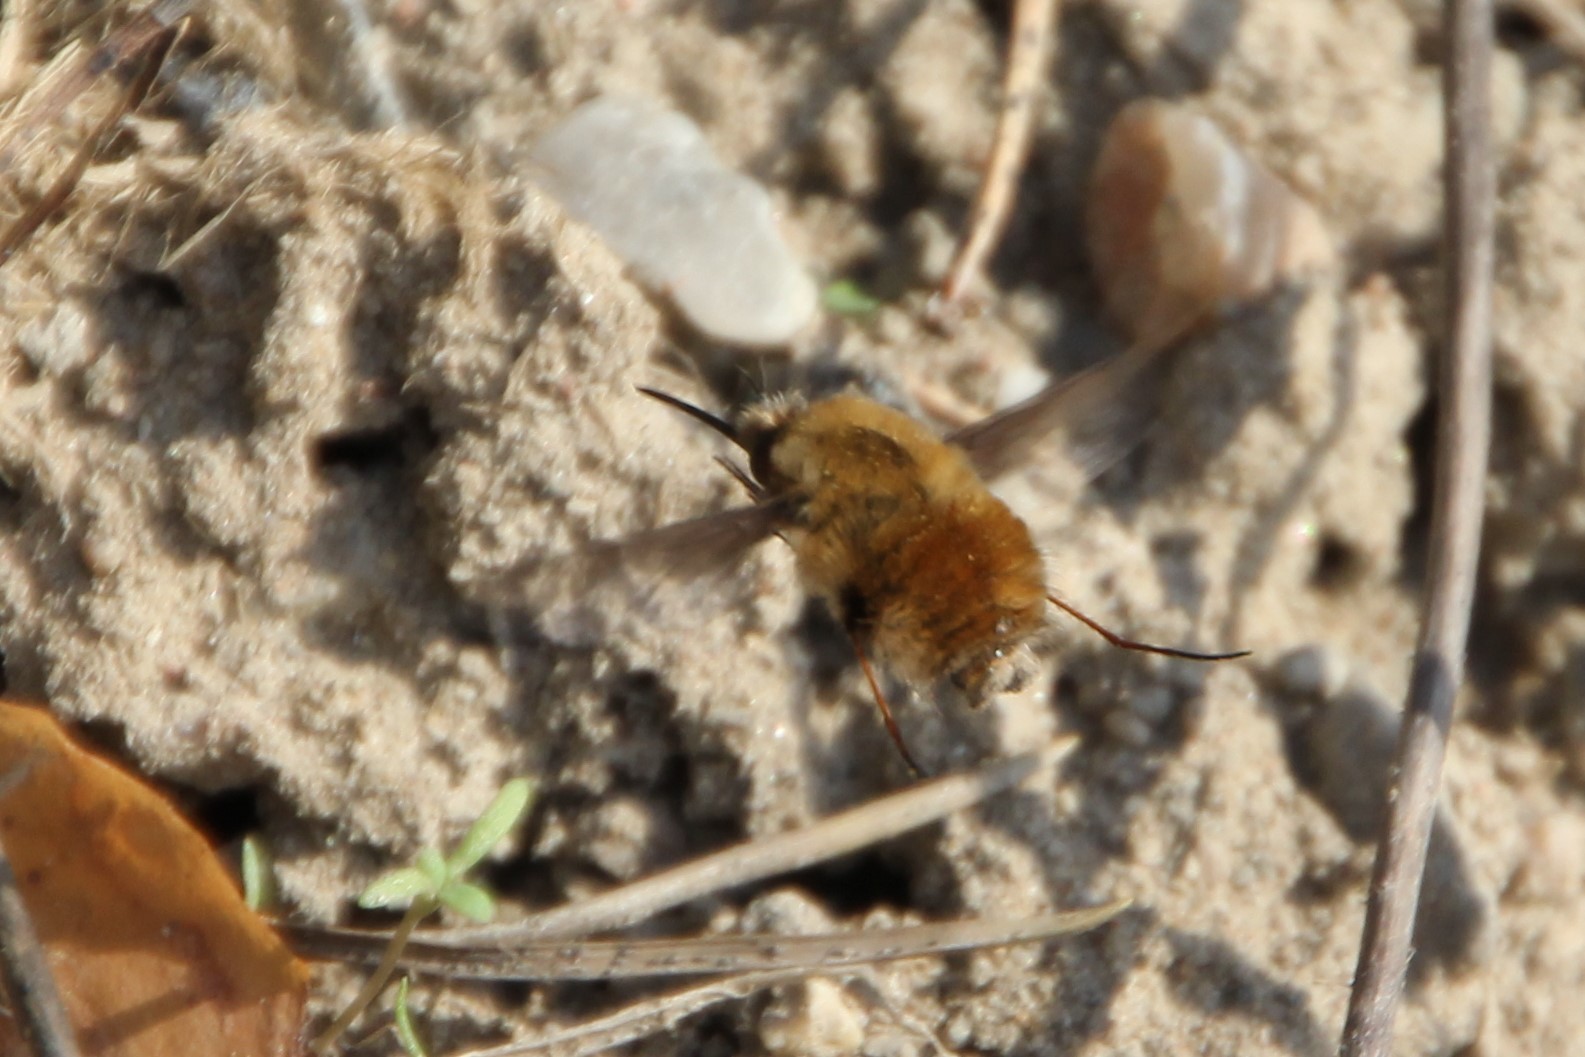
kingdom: Animalia
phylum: Arthropoda
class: Insecta
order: Diptera
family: Bombyliidae
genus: Bombylius
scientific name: Bombylius major
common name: Bee fly
